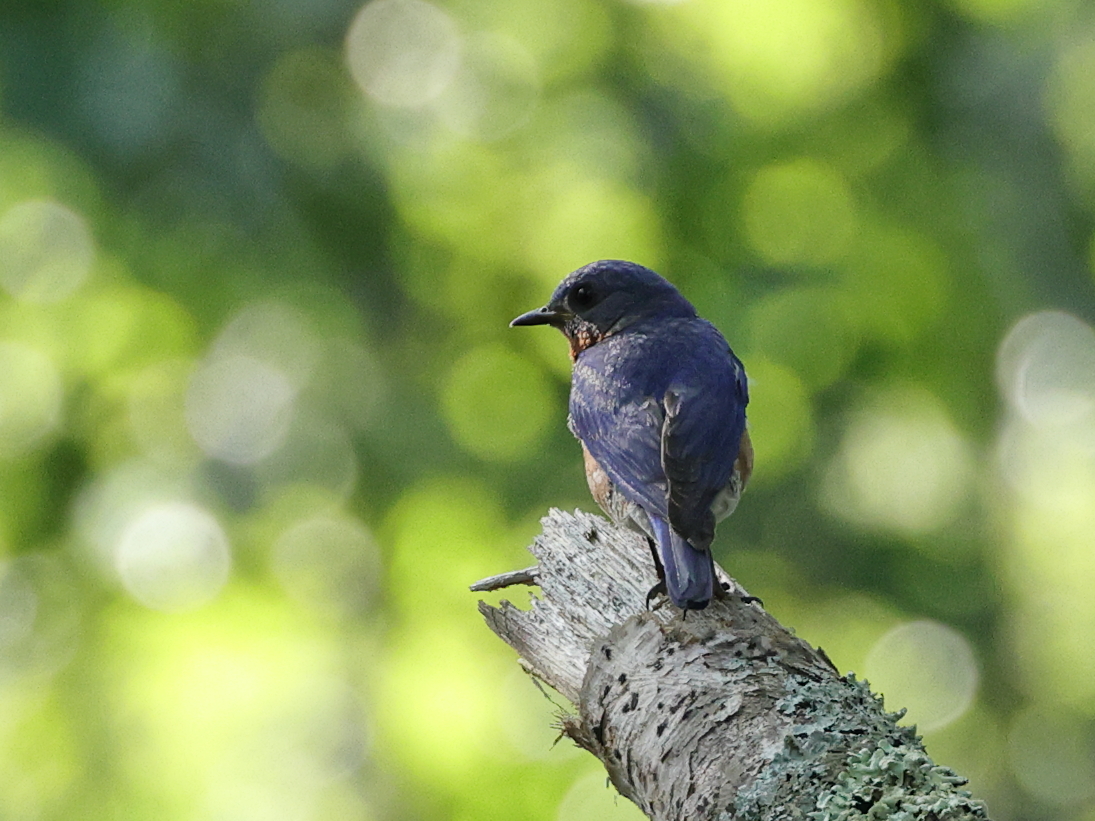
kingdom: Animalia
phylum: Chordata
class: Aves
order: Passeriformes
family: Turdidae
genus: Sialia
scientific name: Sialia sialis
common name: Eastern bluebird
